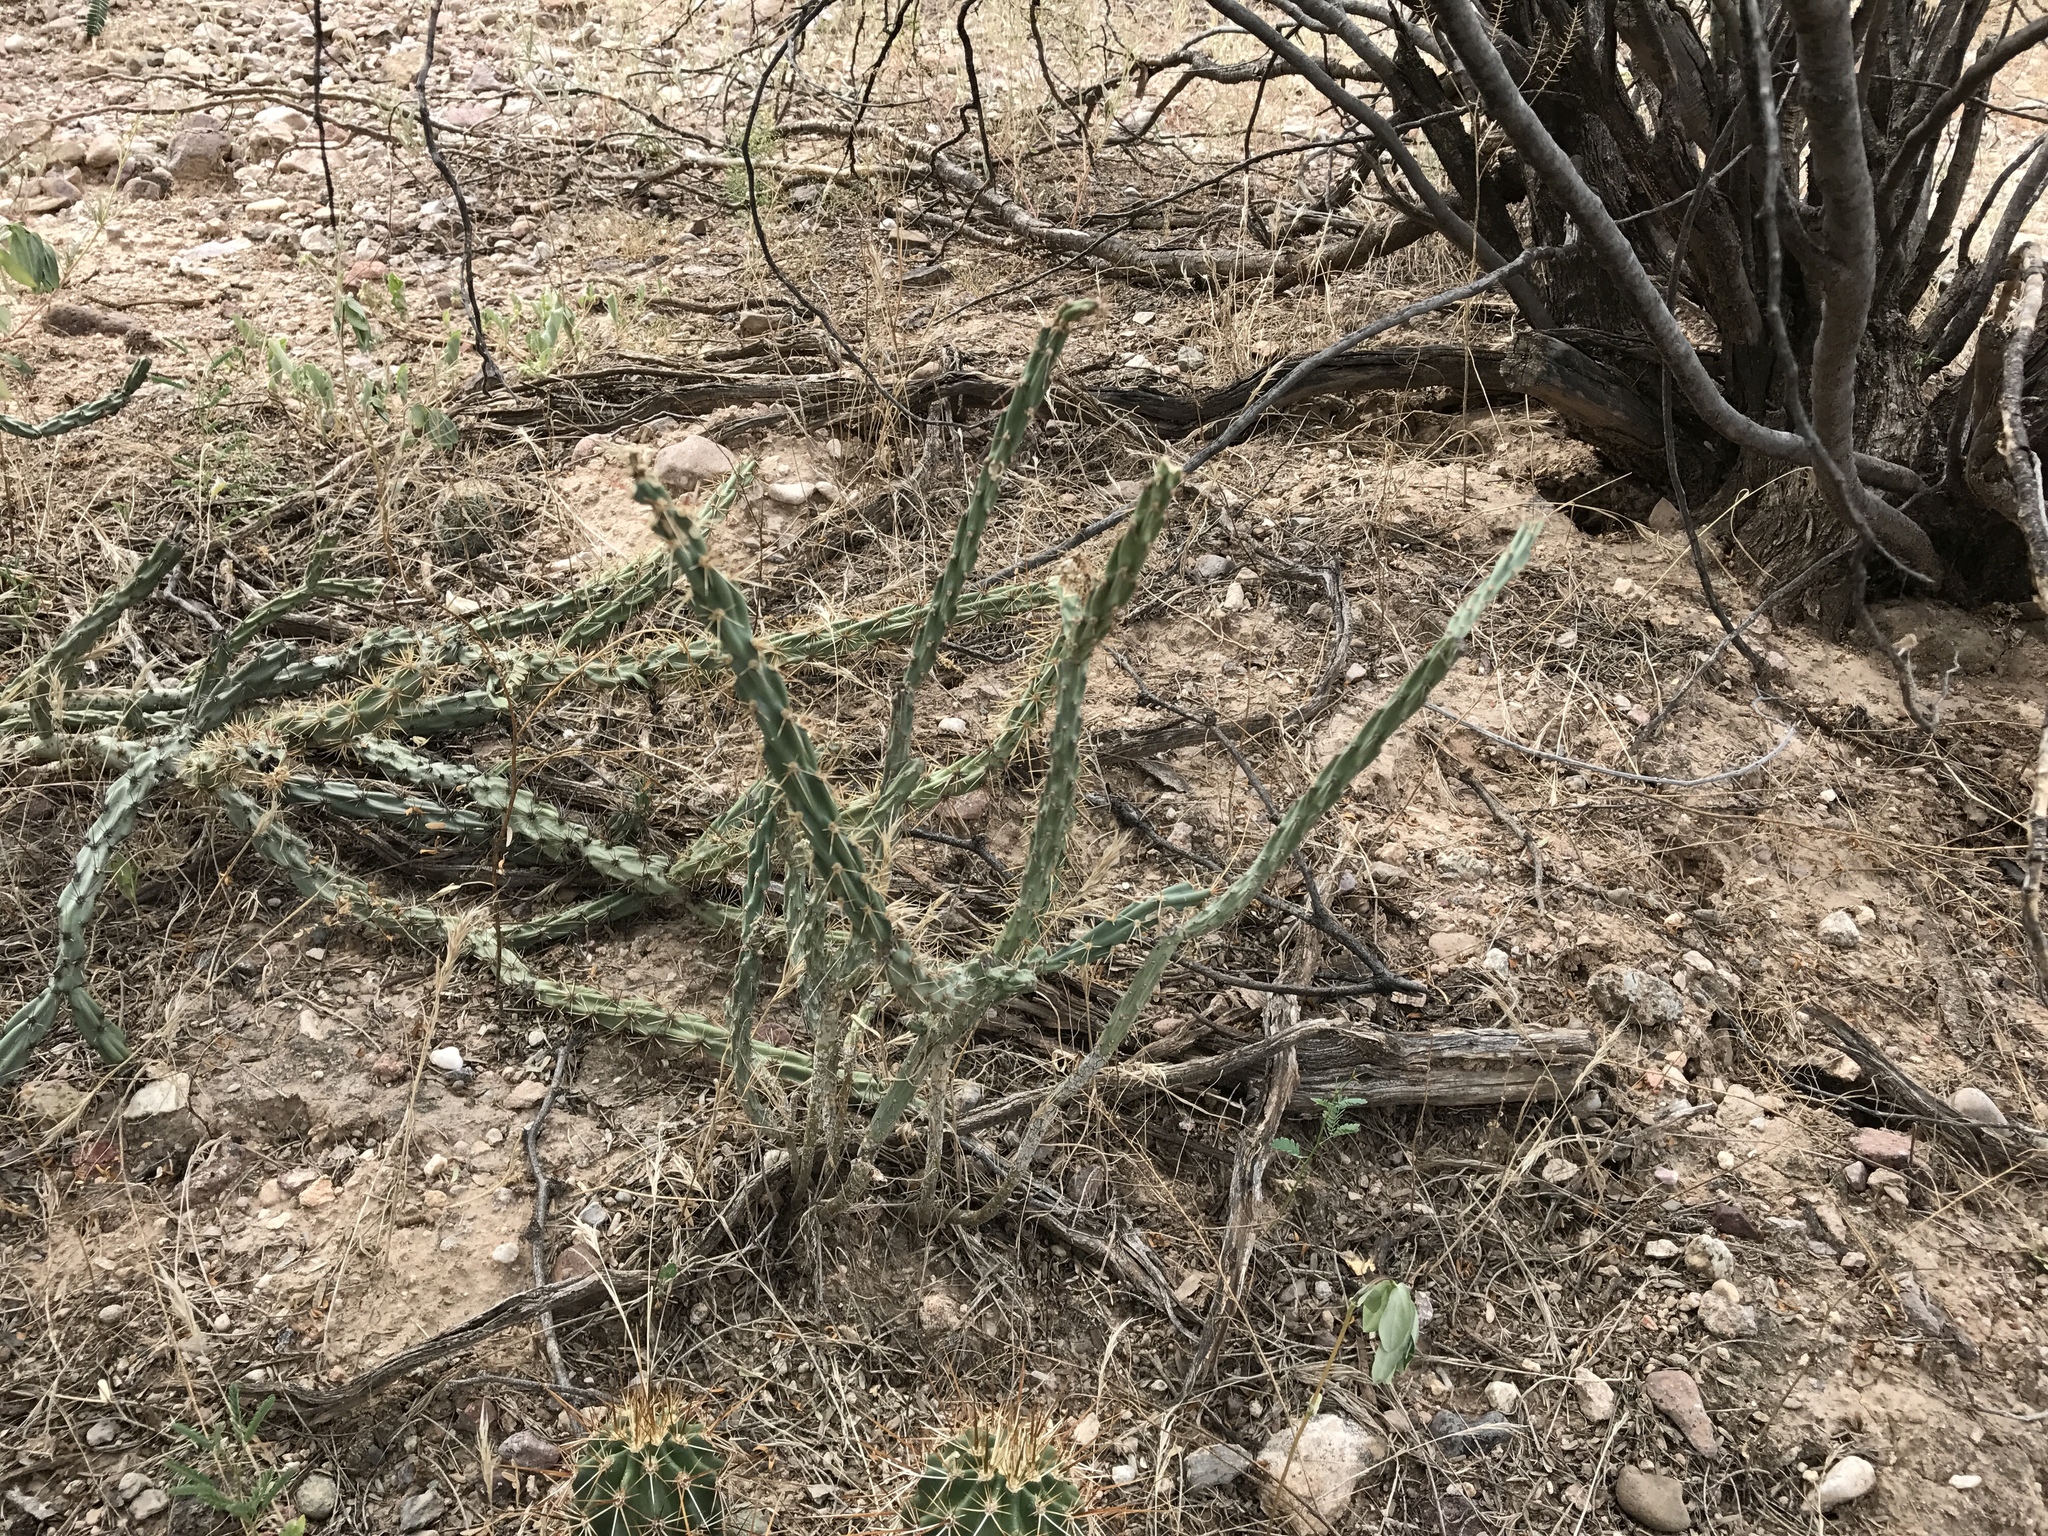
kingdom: Plantae
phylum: Tracheophyta
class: Magnoliopsida
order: Caryophyllales
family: Cactaceae
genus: Cylindropuntia
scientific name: Cylindropuntia acanthocarpa
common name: Buckhorn cholla
